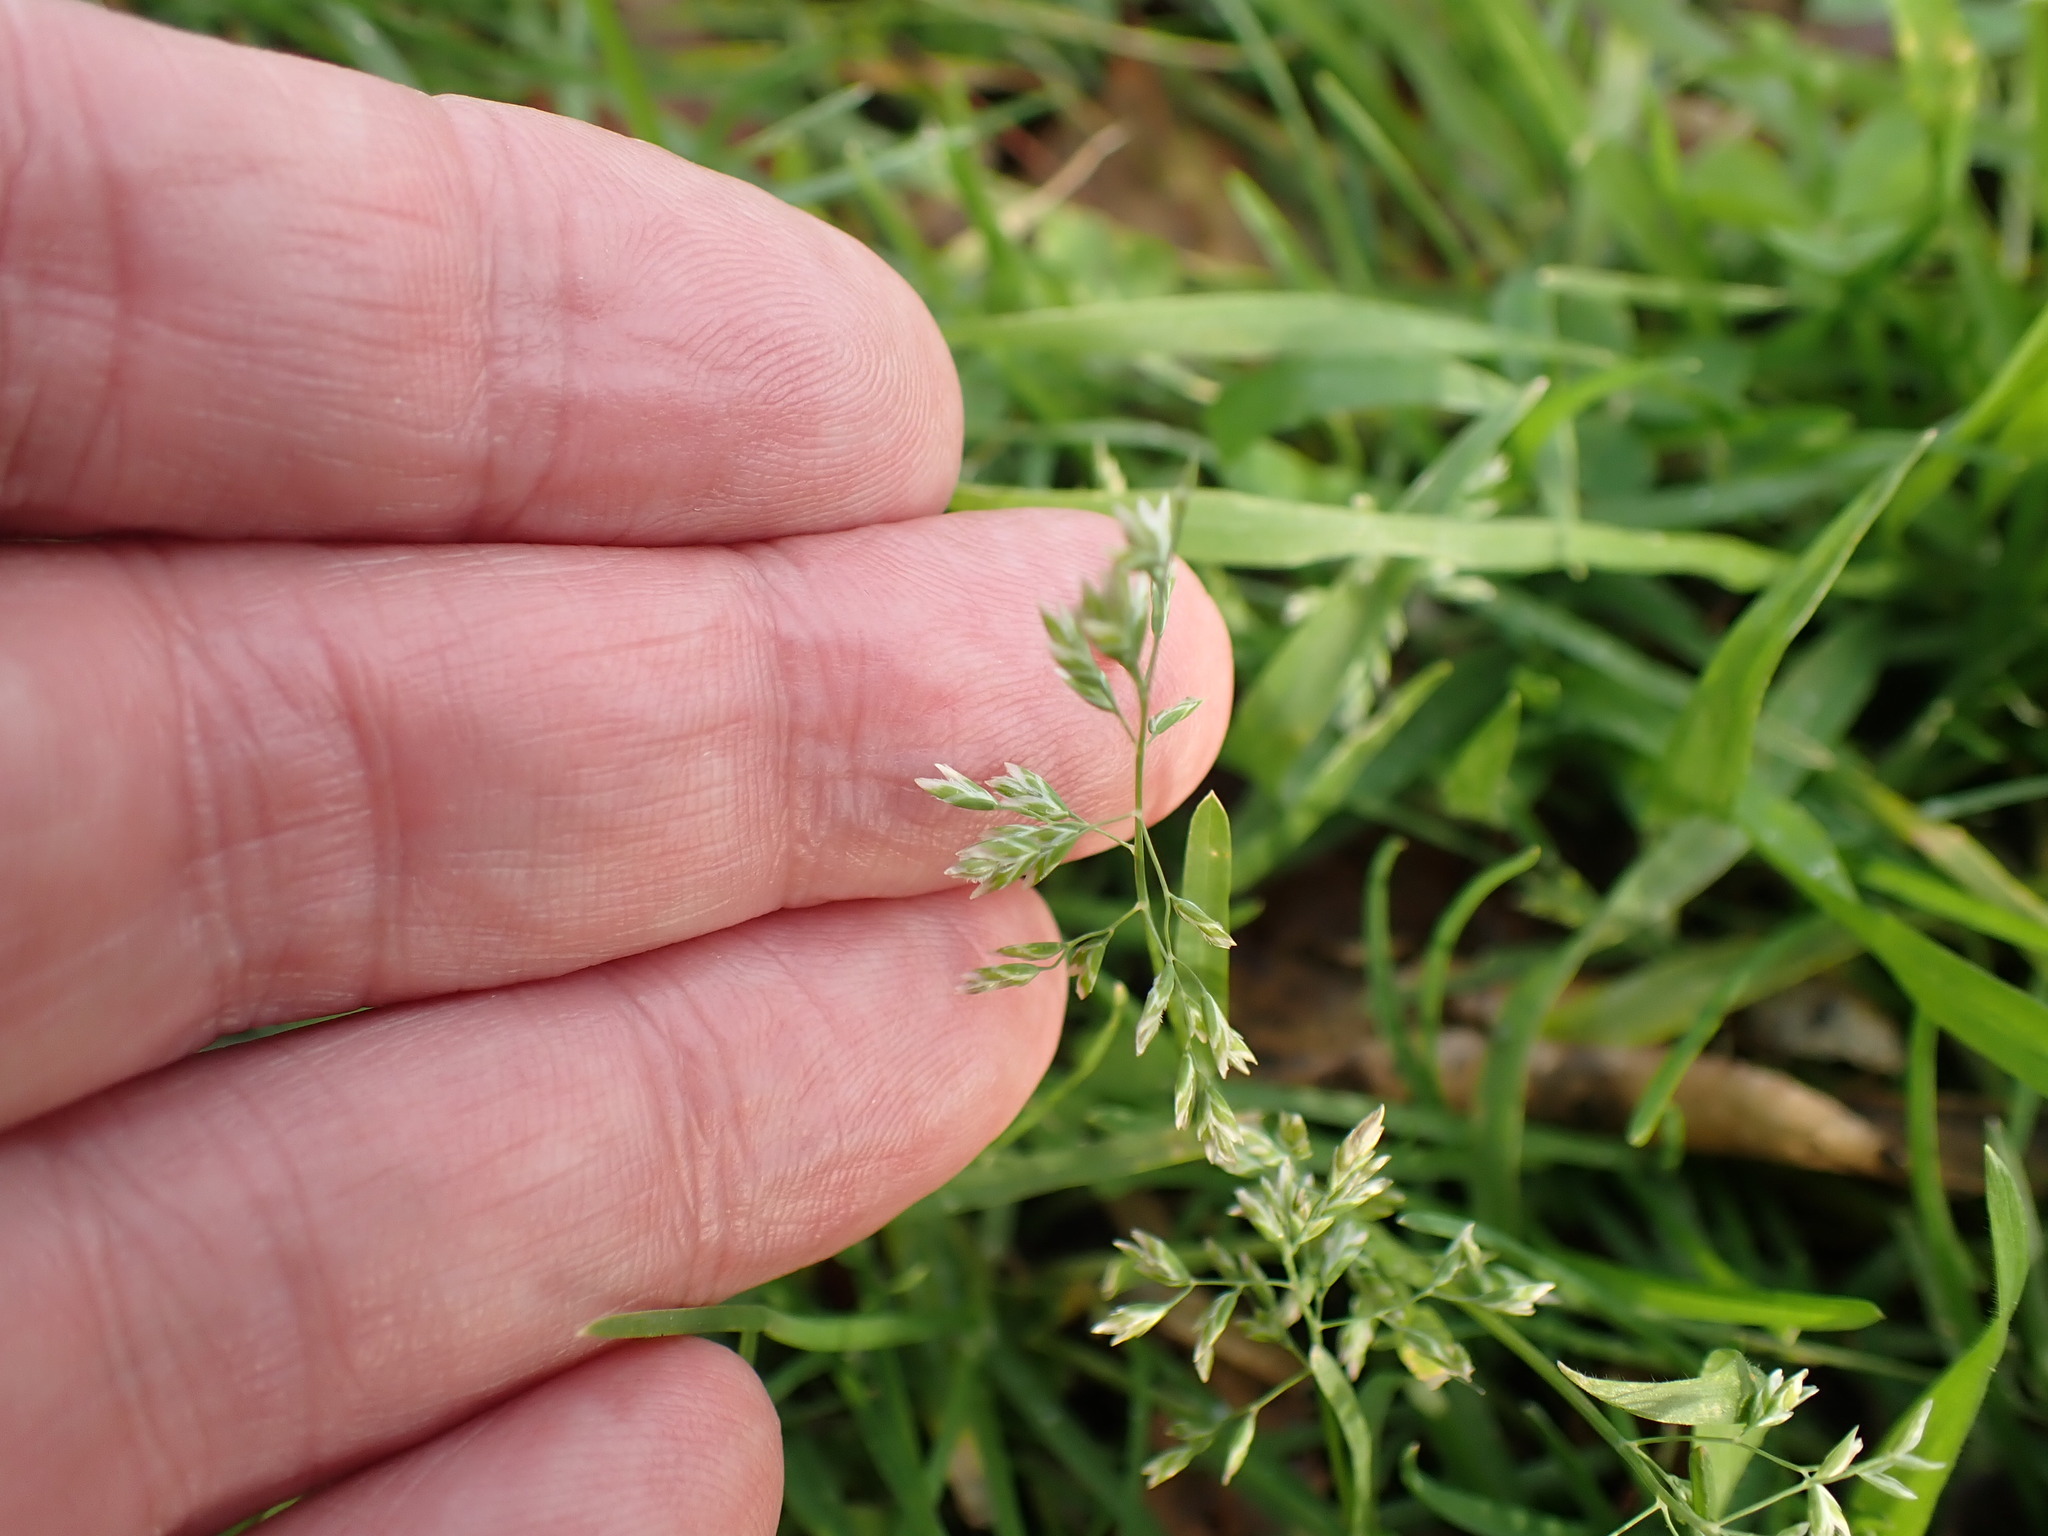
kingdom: Plantae
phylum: Tracheophyta
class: Liliopsida
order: Poales
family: Poaceae
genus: Poa
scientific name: Poa annua
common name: Annual bluegrass
